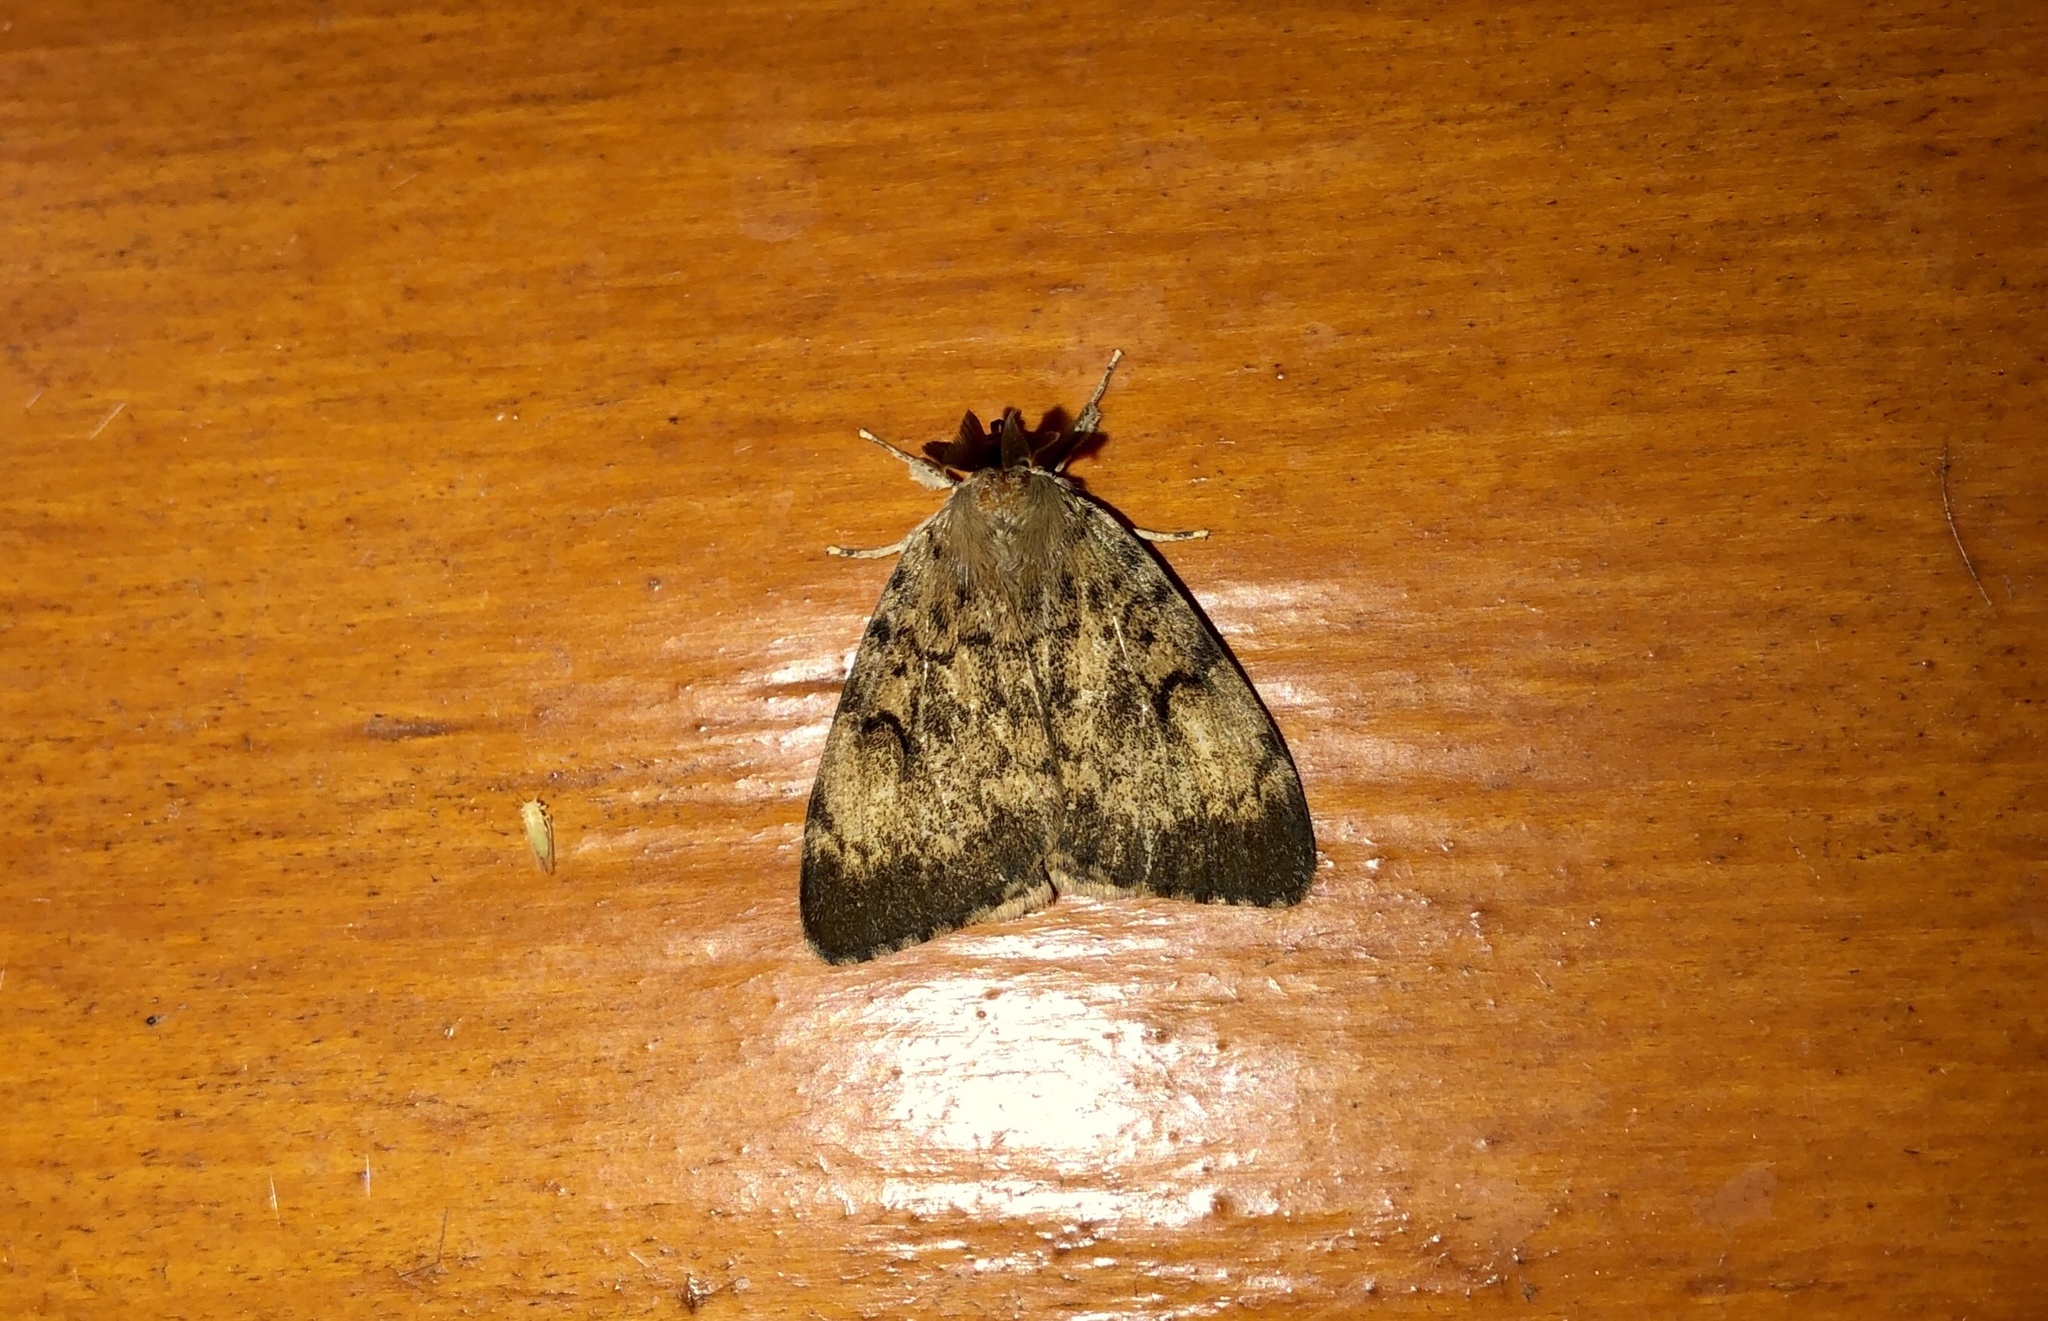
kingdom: Animalia
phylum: Arthropoda
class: Insecta
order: Lepidoptera
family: Erebidae
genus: Lymantria
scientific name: Lymantria dispar
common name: Gypsy moth
